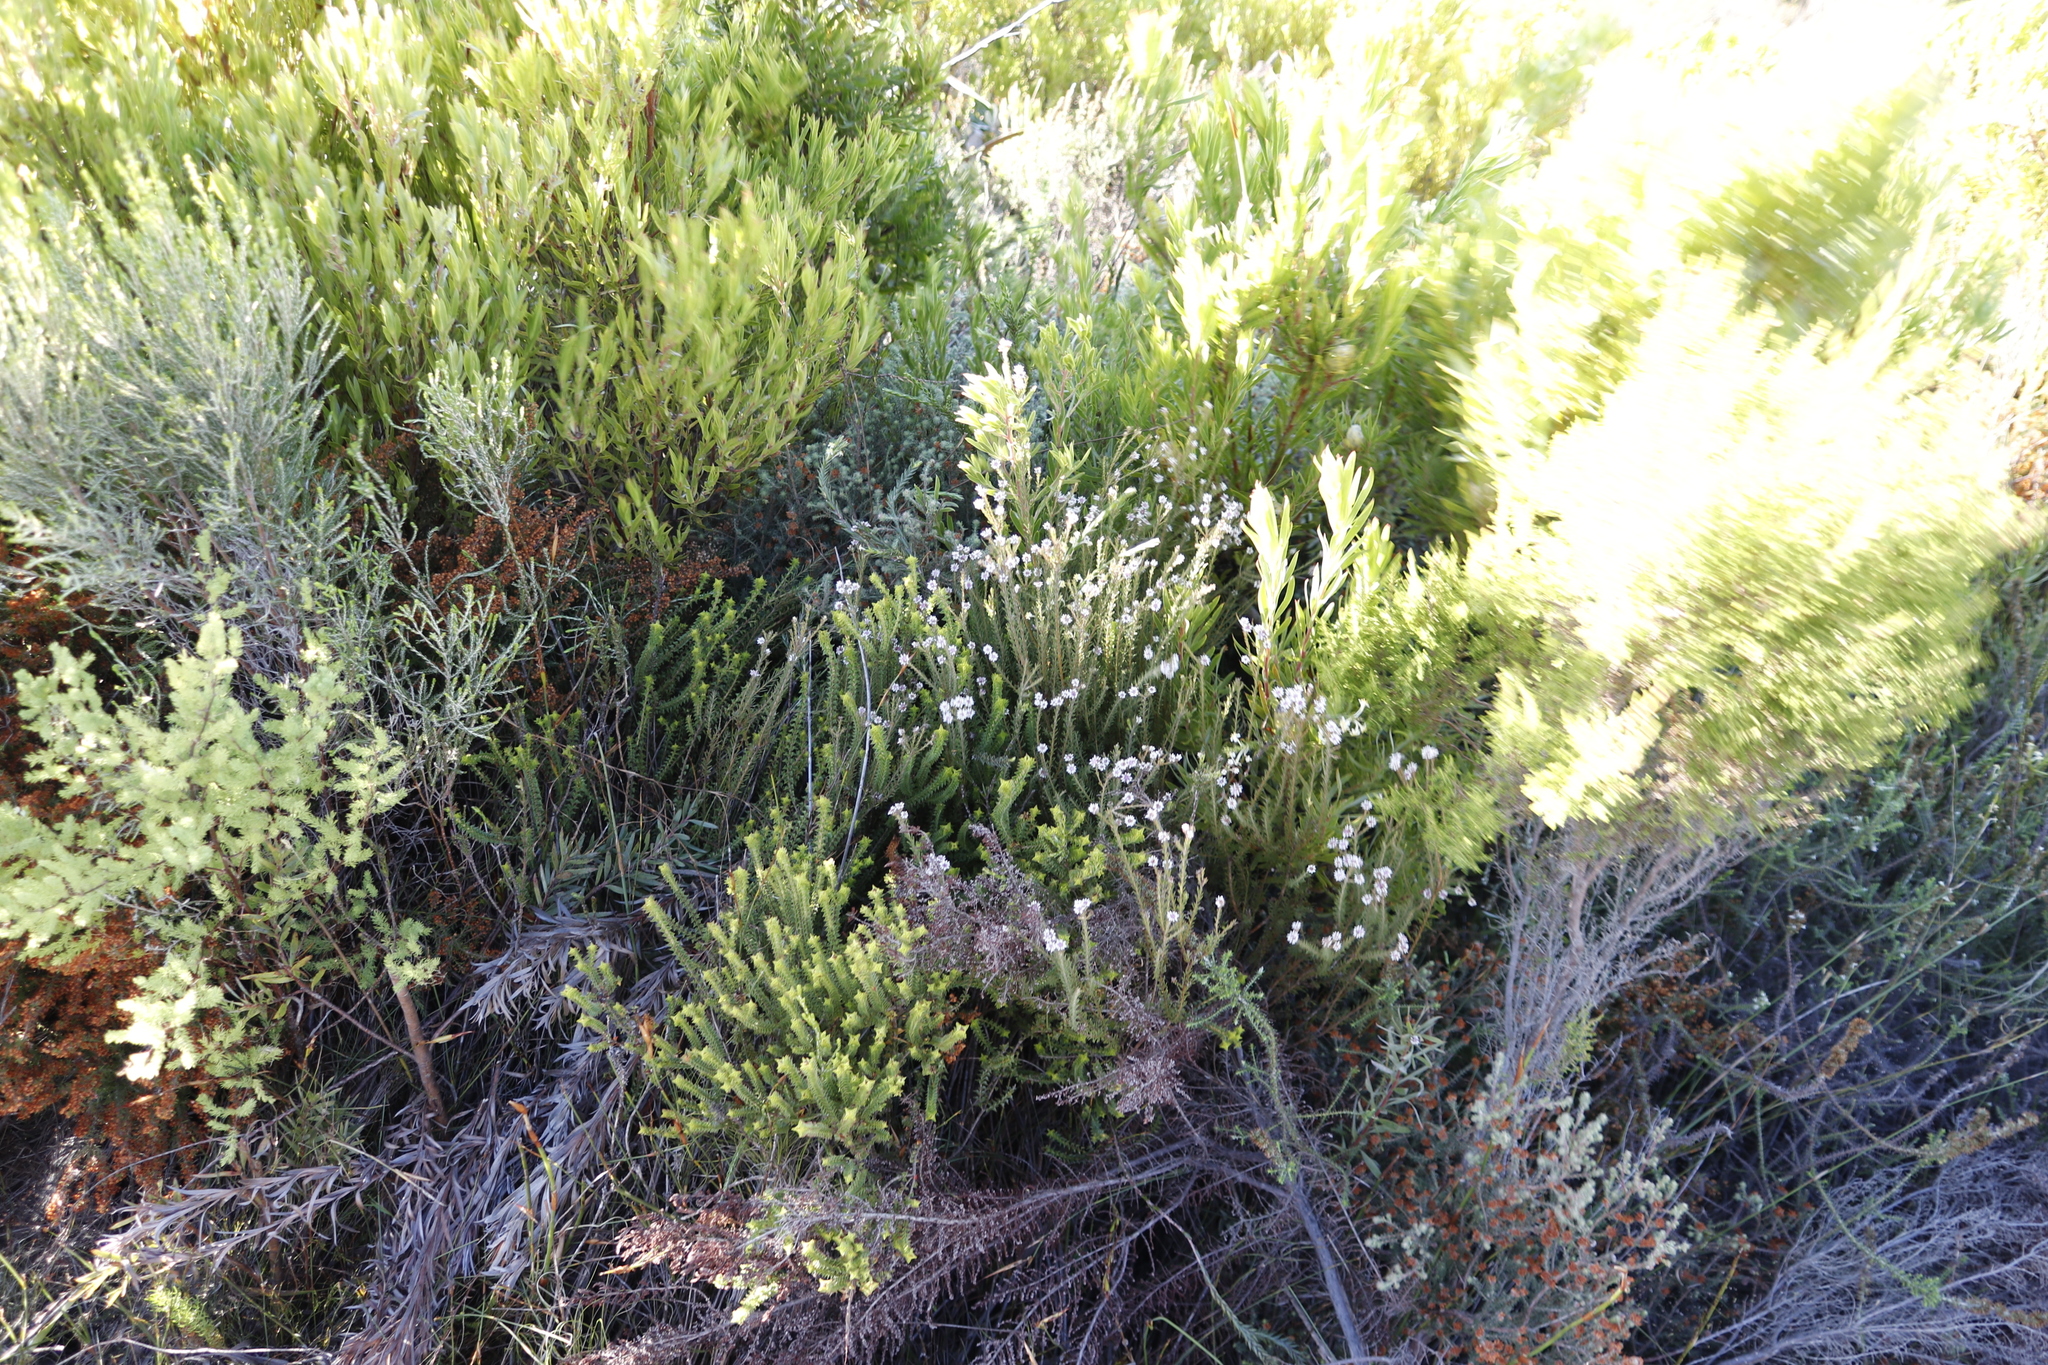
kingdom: Plantae
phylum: Tracheophyta
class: Magnoliopsida
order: Bruniales
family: Bruniaceae
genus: Staavia
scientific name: Staavia radiata
